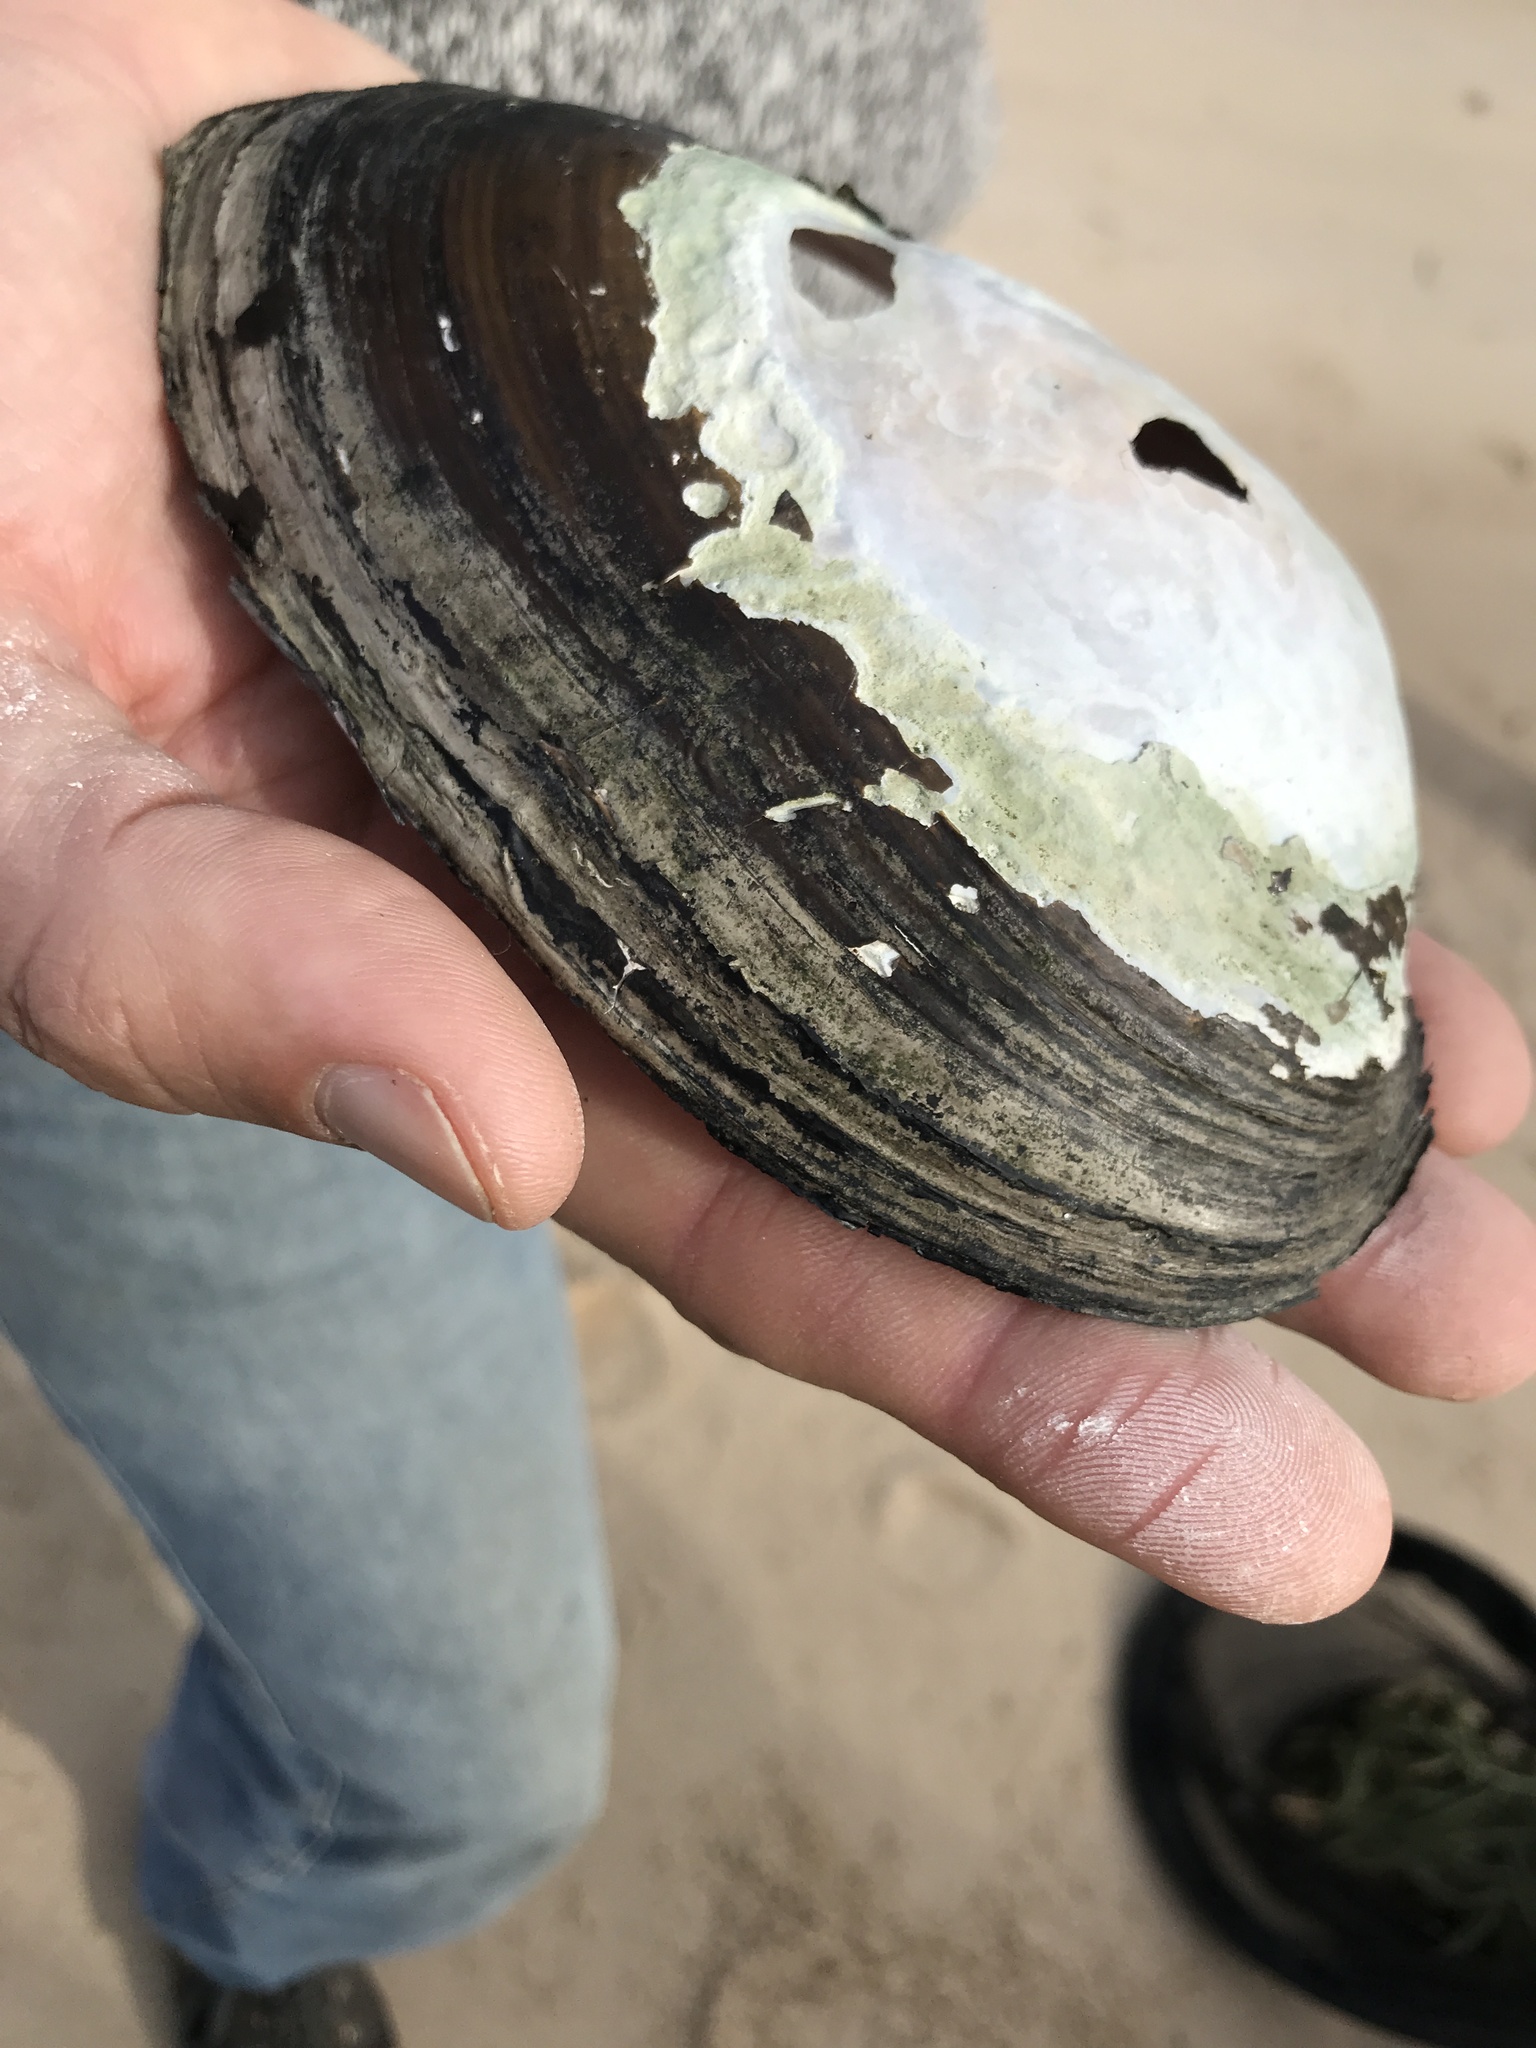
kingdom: Animalia
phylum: Mollusca
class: Bivalvia
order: Unionida
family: Mycetopodidae
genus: Anodontites
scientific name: Anodontites trapesialis
